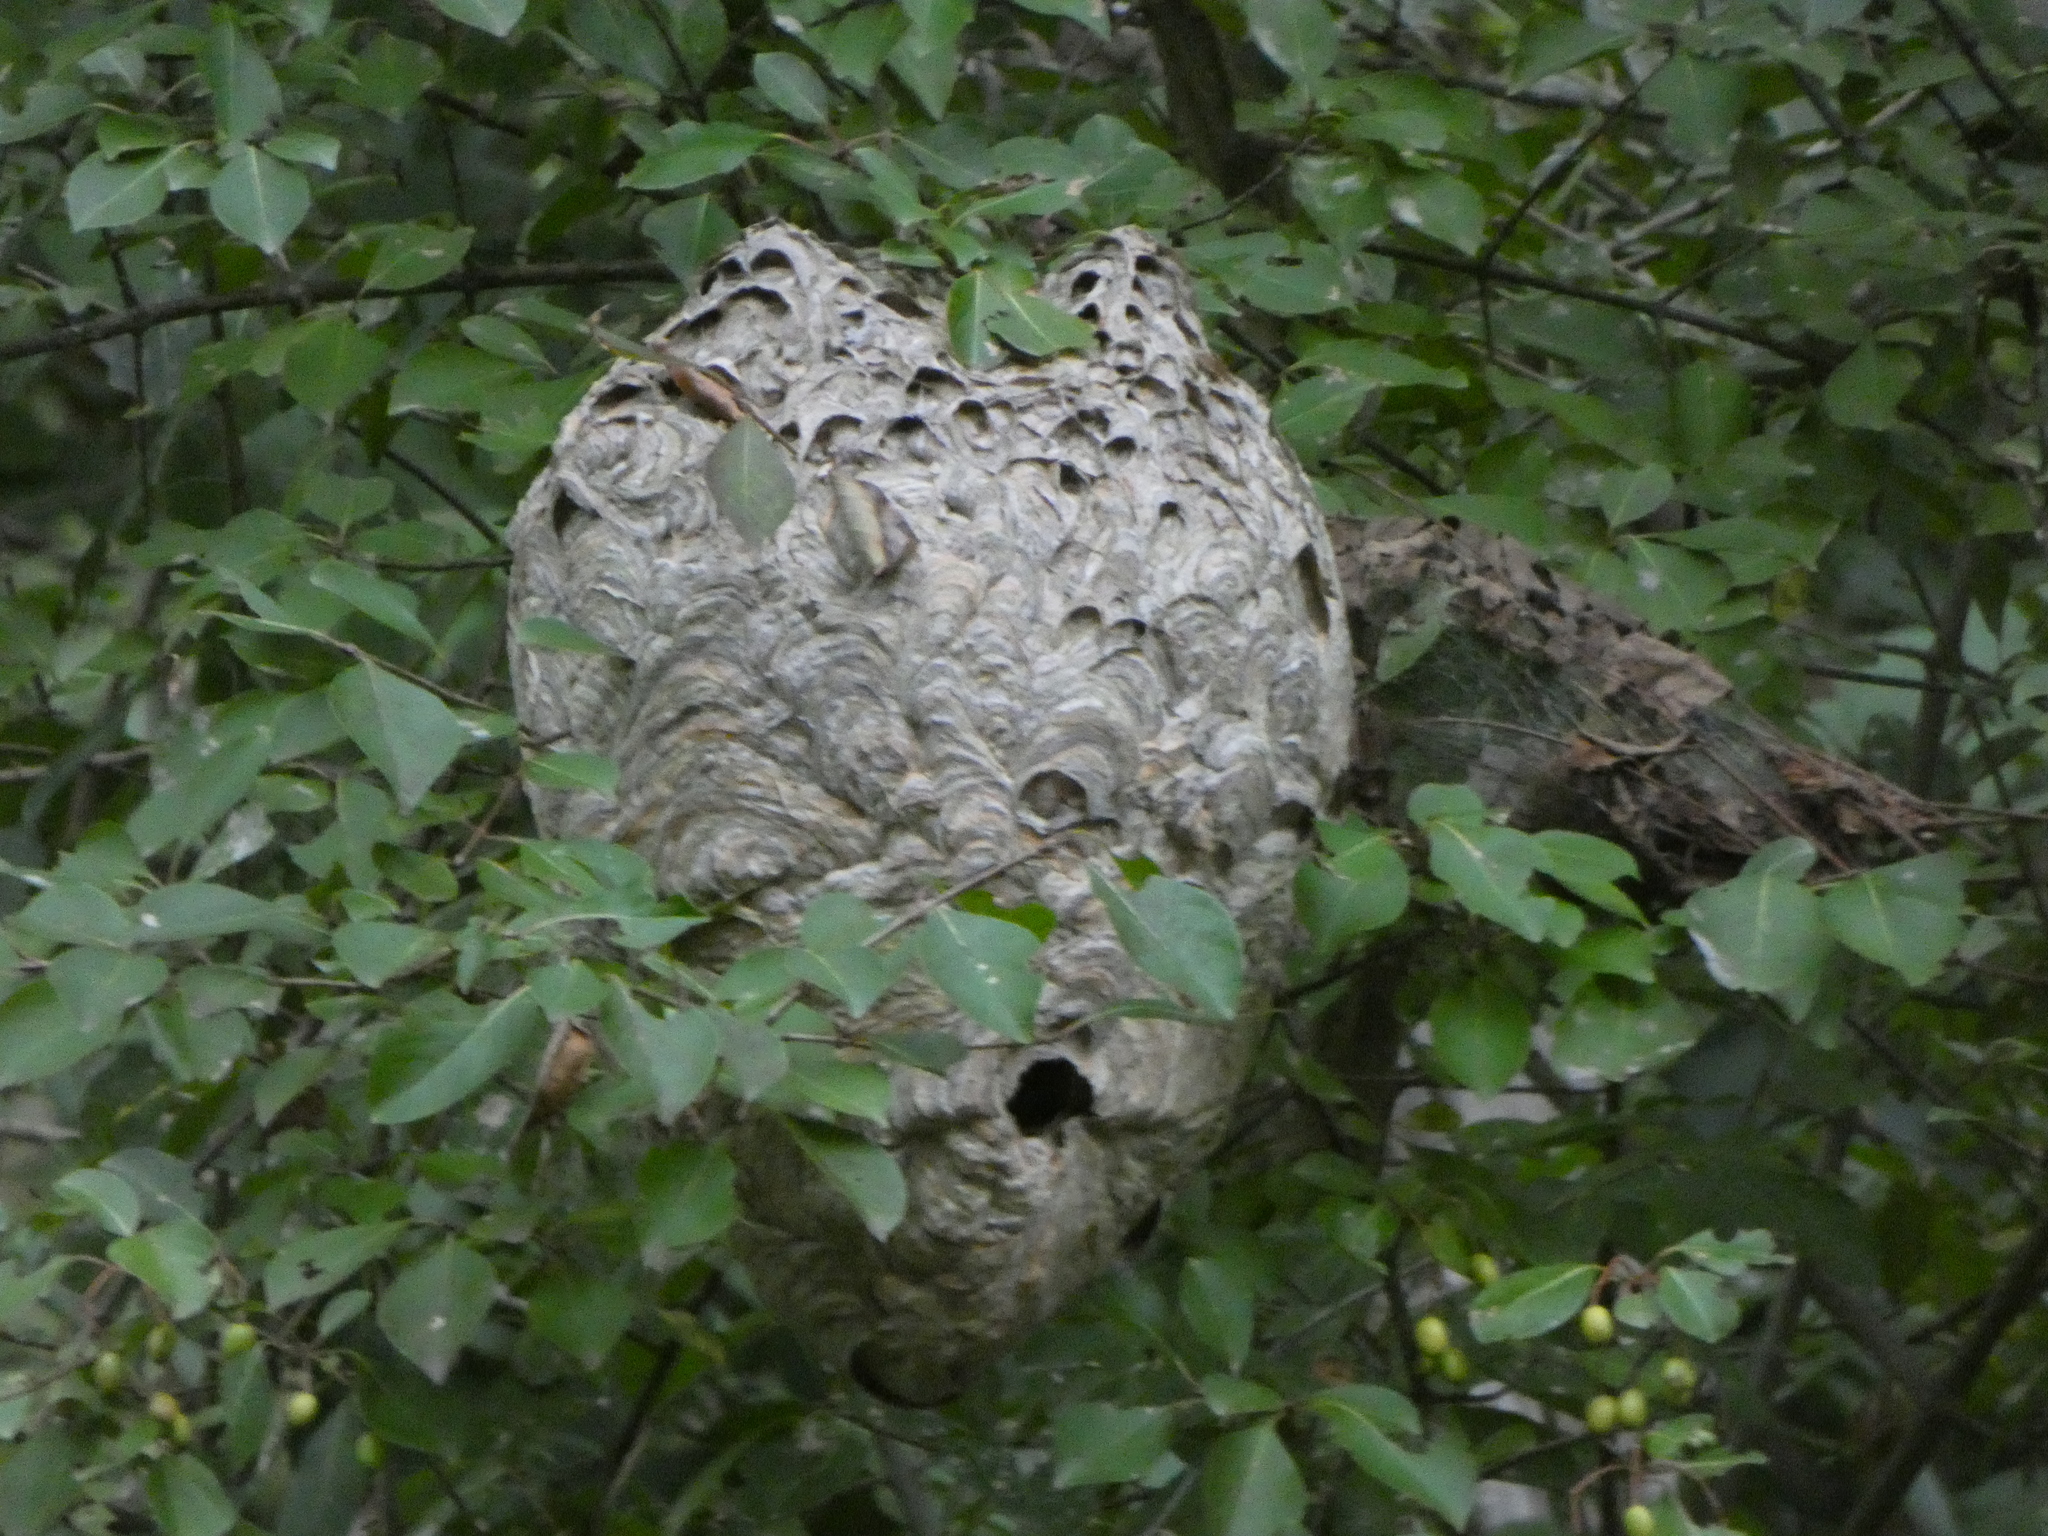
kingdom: Animalia
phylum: Arthropoda
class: Insecta
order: Hymenoptera
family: Vespidae
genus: Dolichovespula
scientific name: Dolichovespula maculata
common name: Bald-faced hornet
